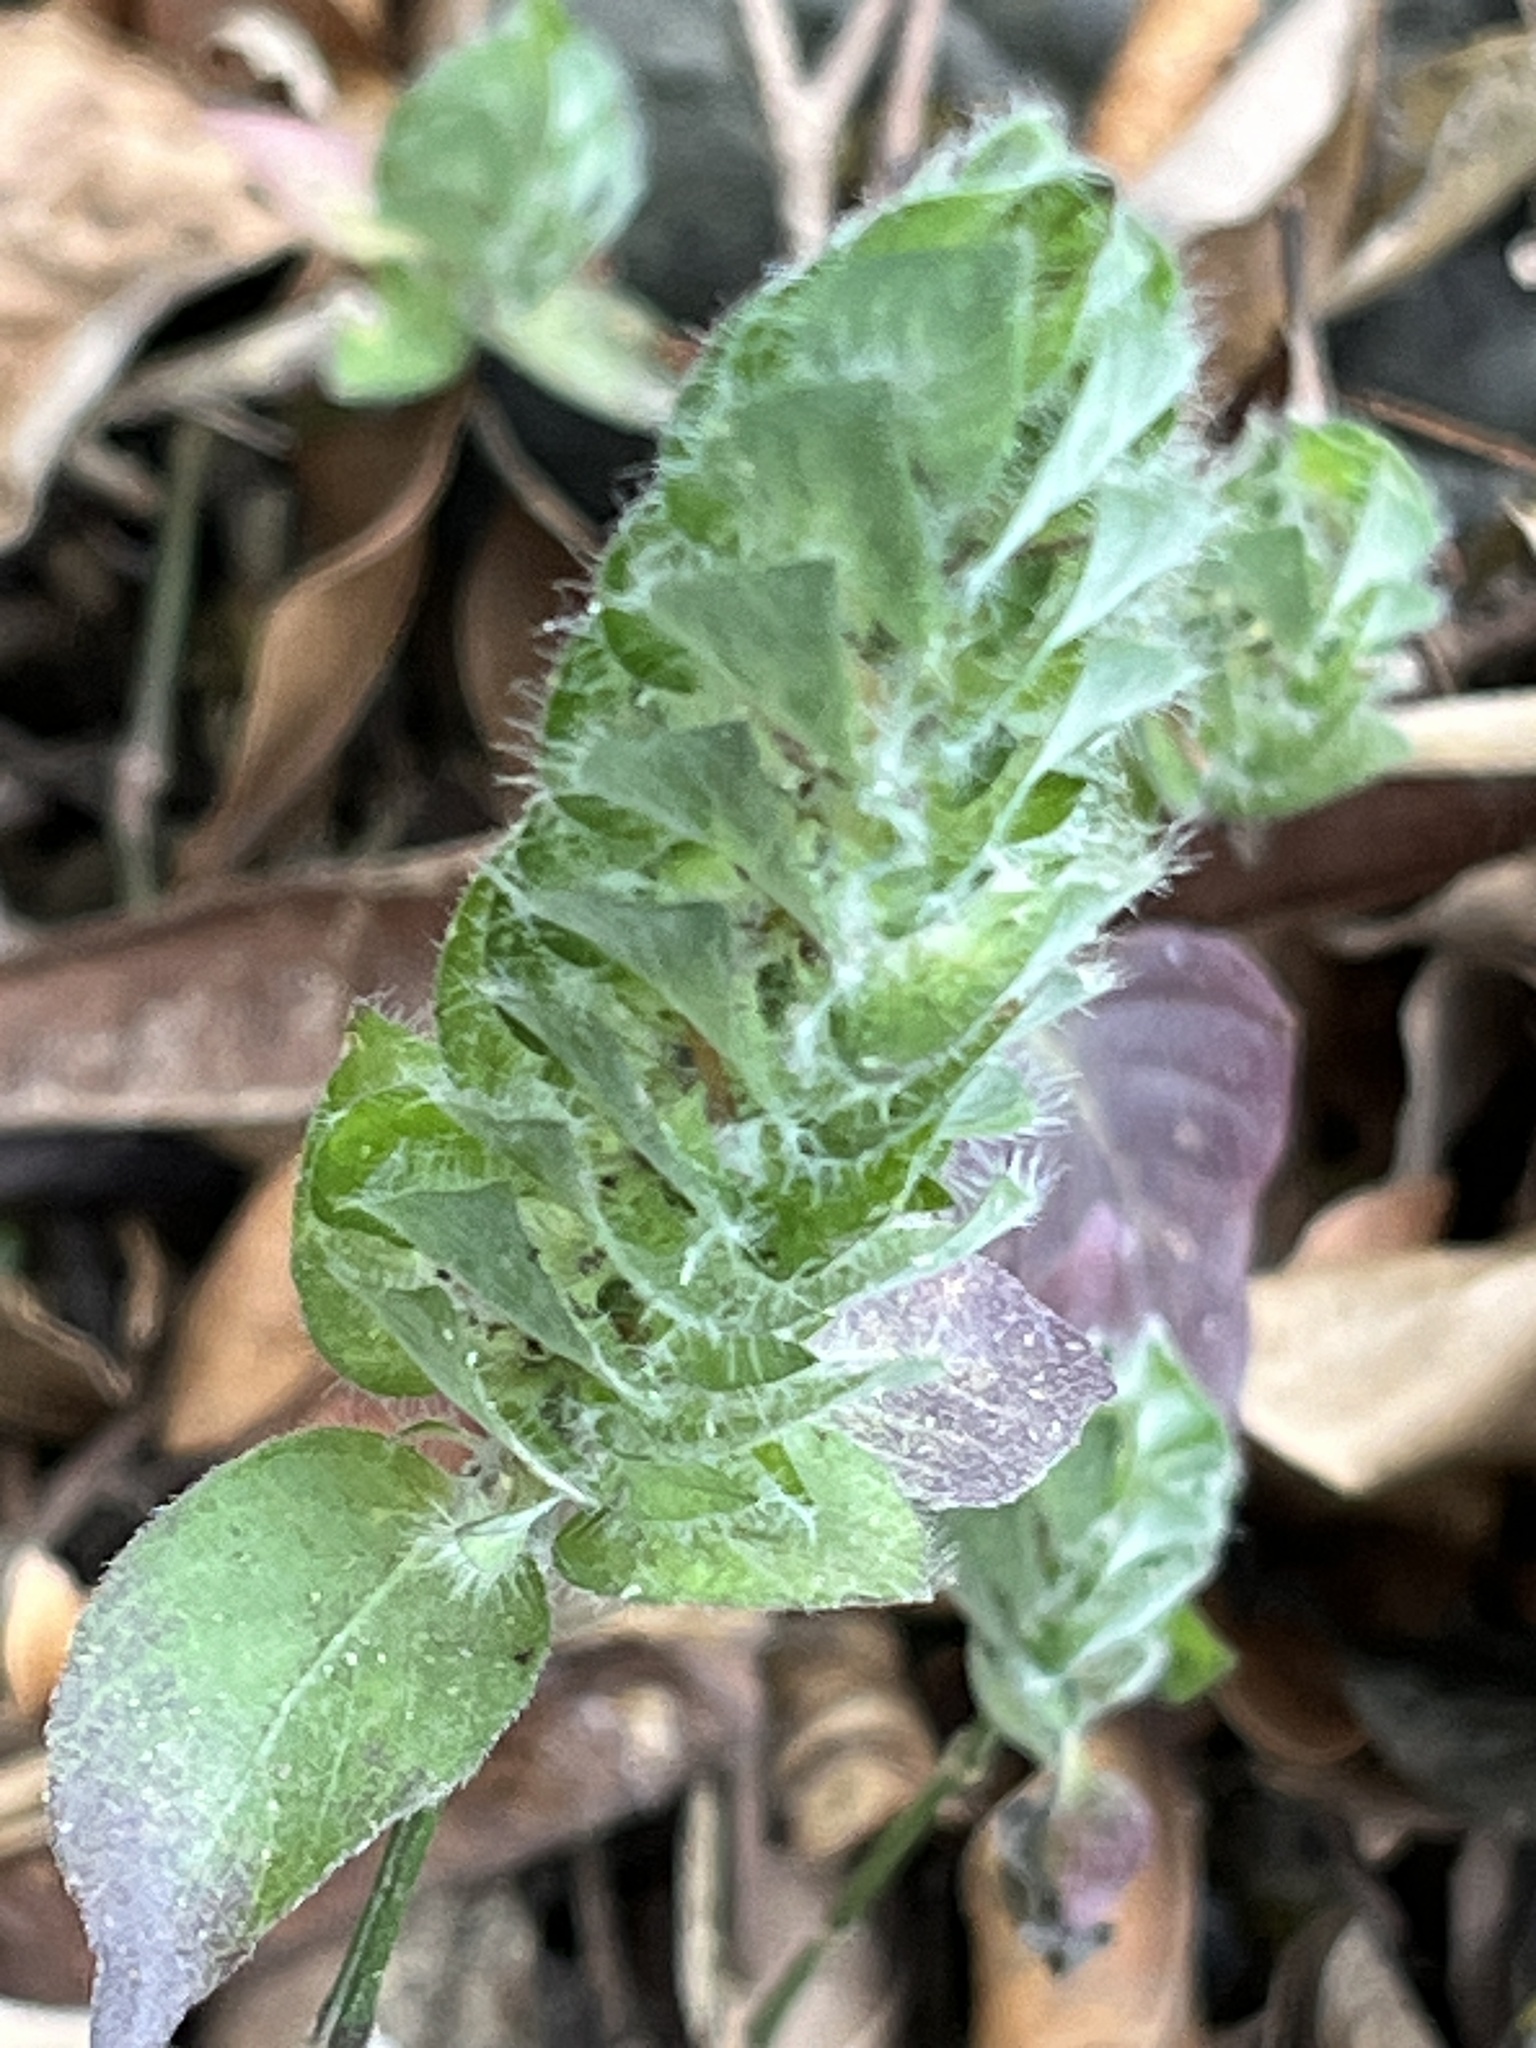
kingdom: Plantae
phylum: Tracheophyta
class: Magnoliopsida
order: Lamiales
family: Acanthaceae
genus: Ruellia
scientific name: Ruellia blechum
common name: Browne's blechum
